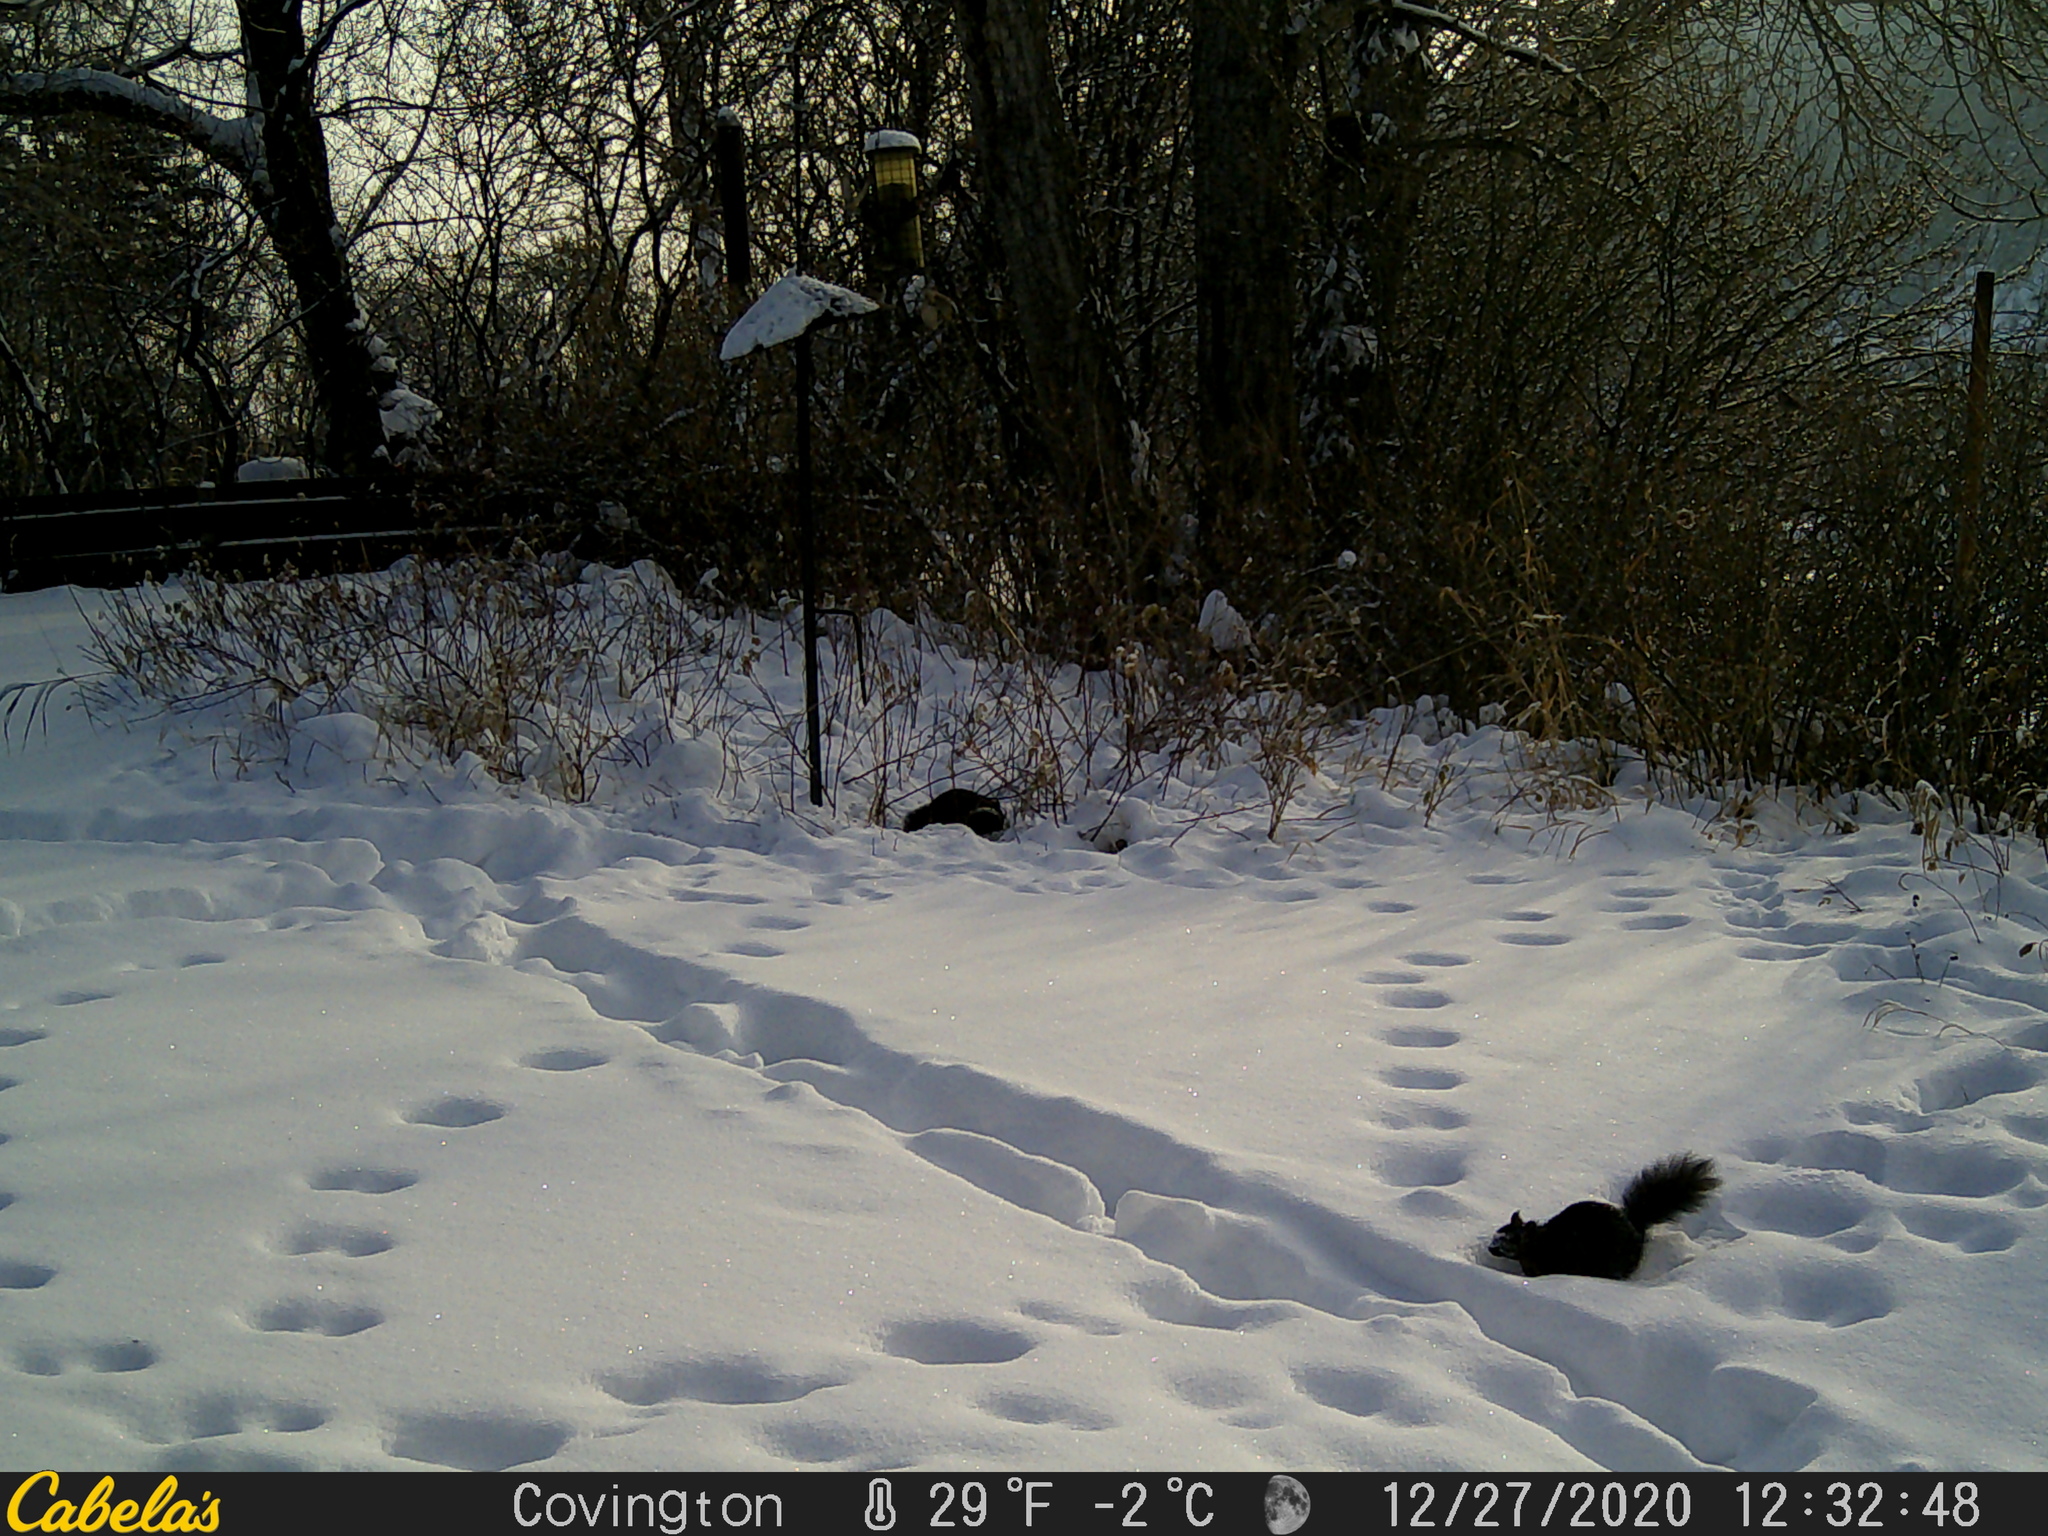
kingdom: Animalia
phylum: Chordata
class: Mammalia
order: Rodentia
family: Sciuridae
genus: Sciurus
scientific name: Sciurus carolinensis
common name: Eastern gray squirrel
